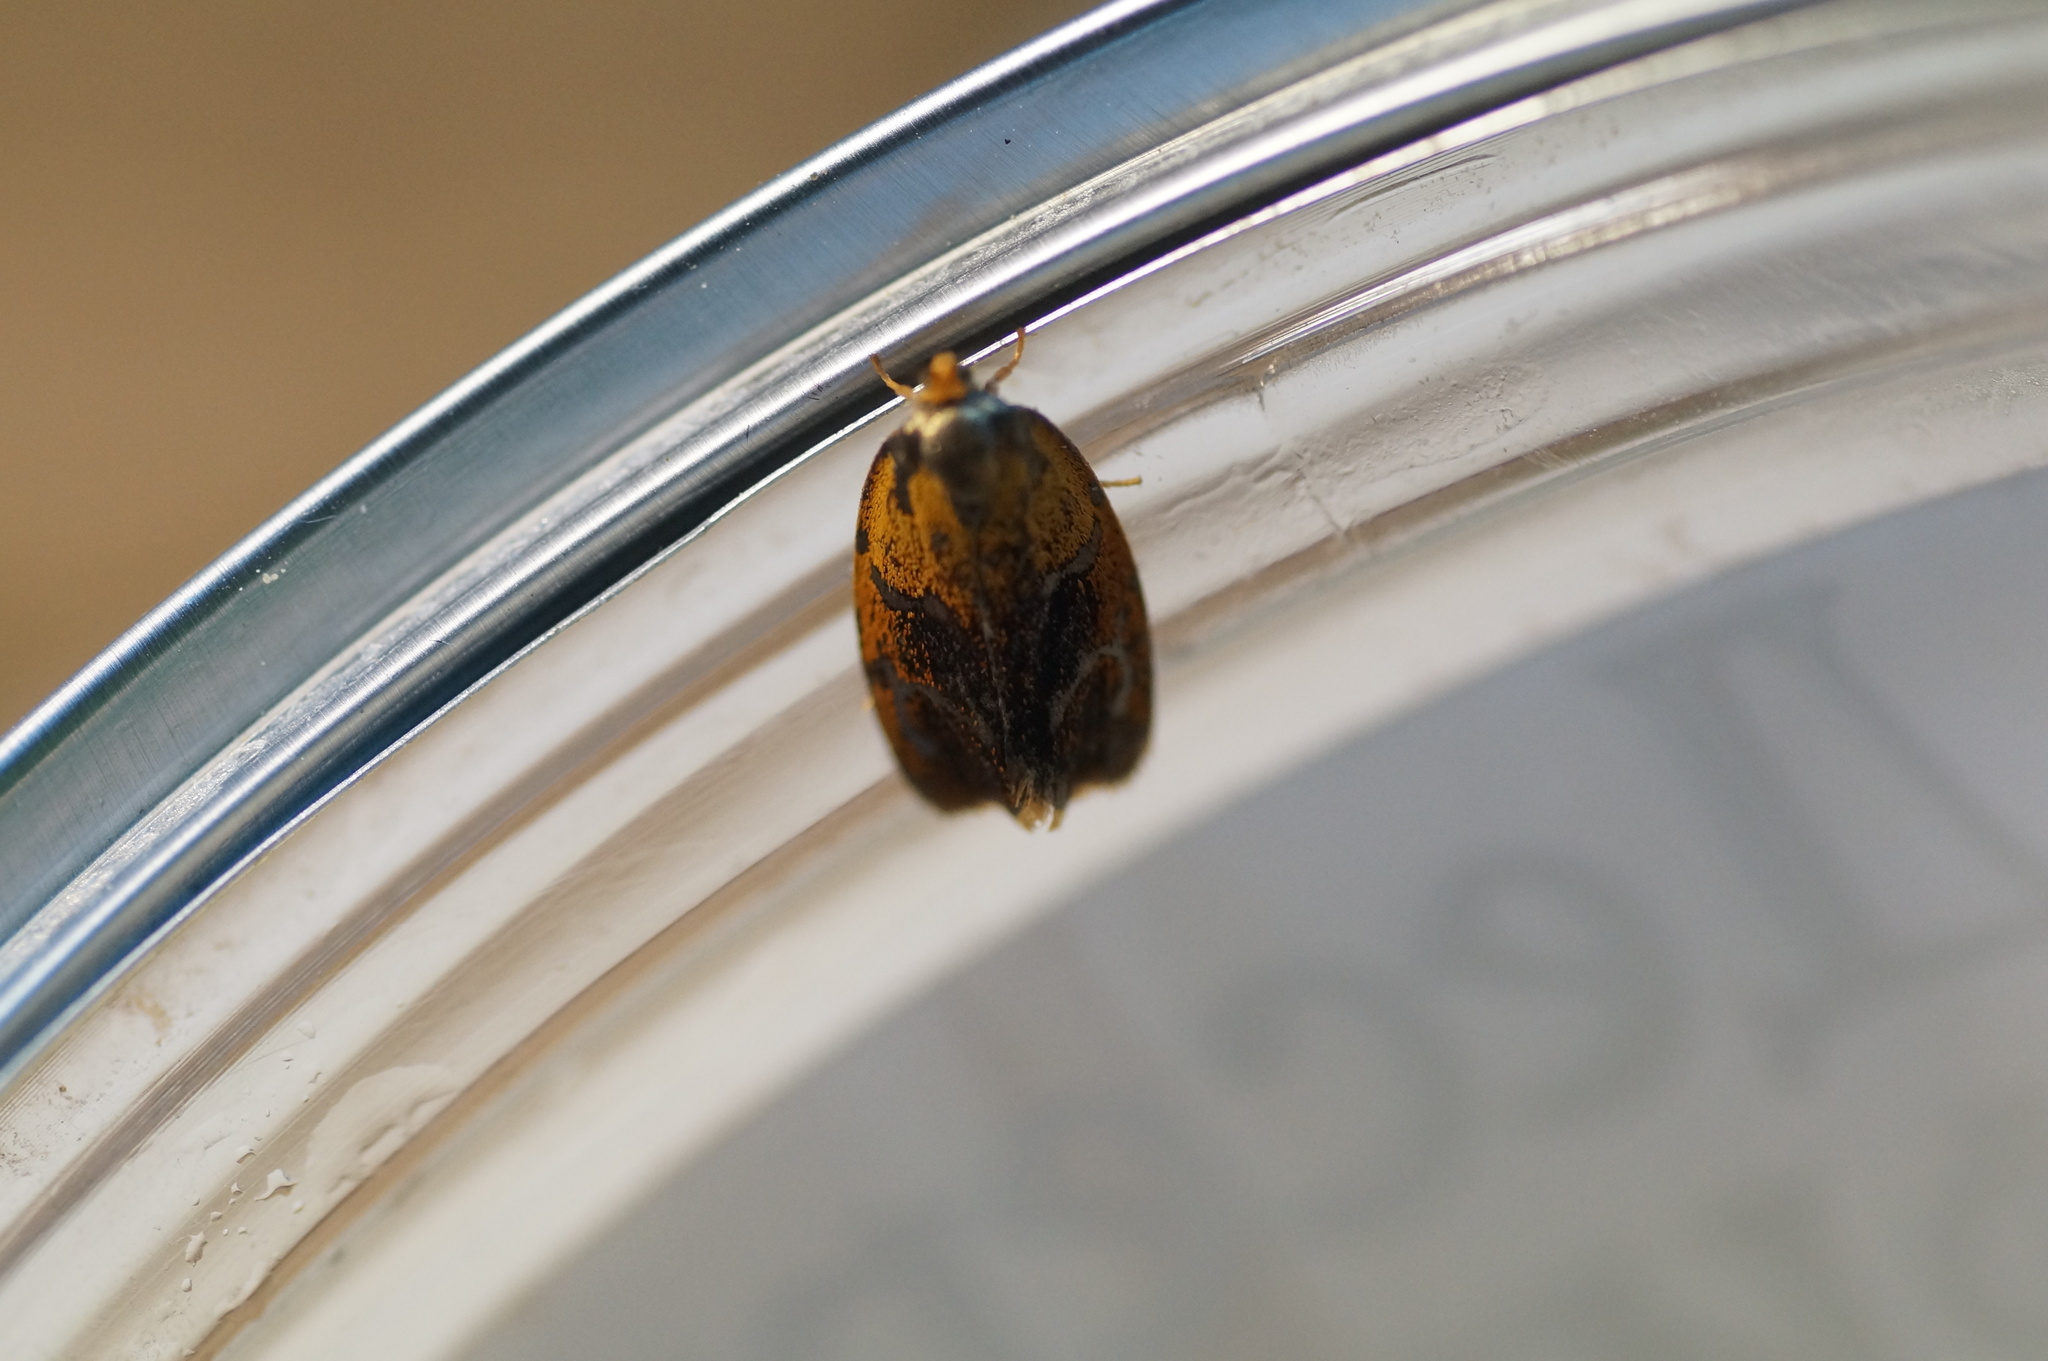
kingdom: Animalia
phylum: Arthropoda
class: Insecta
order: Lepidoptera
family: Tortricidae
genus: Ptycholoma
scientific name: Ptycholoma lecheana
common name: Leches twist moth
